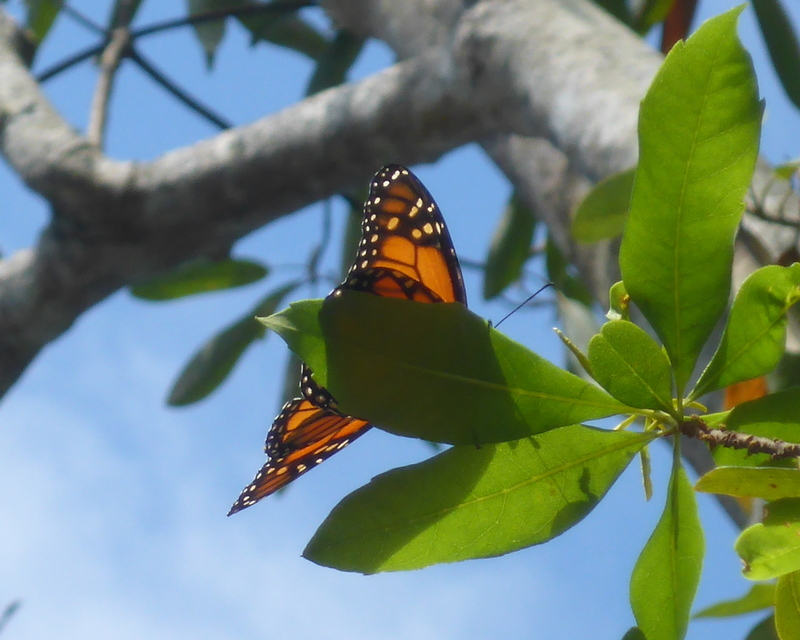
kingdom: Animalia
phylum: Arthropoda
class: Insecta
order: Lepidoptera
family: Nymphalidae
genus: Danaus
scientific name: Danaus plexippus
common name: Monarch
